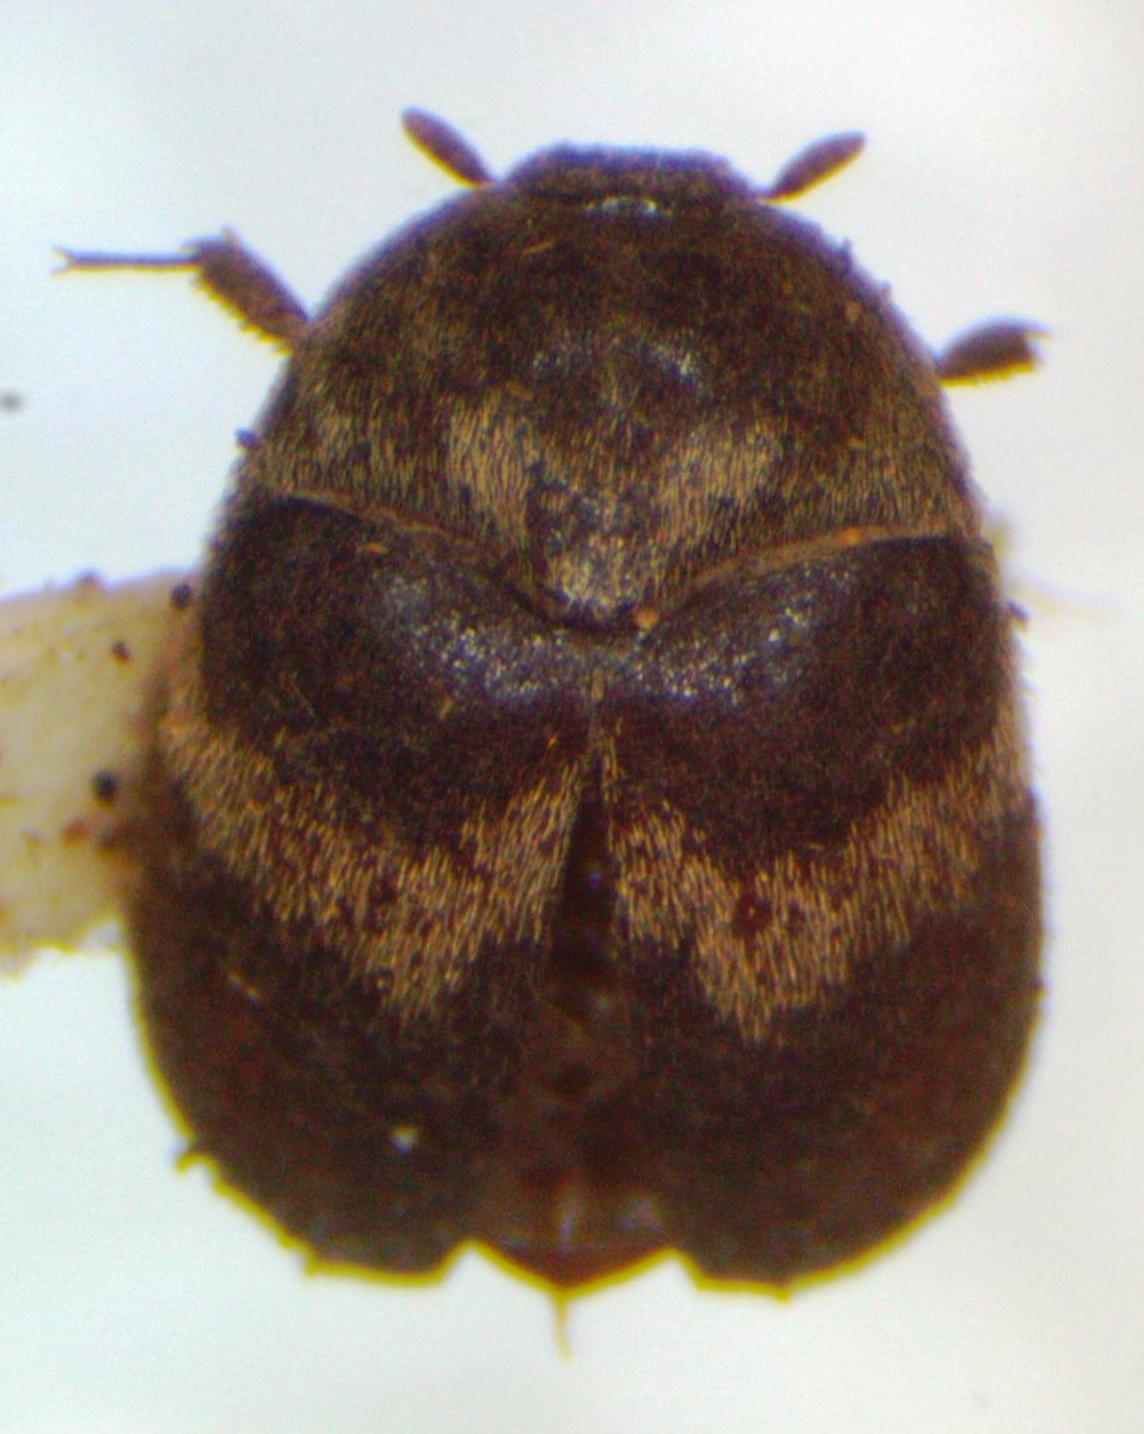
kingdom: Animalia
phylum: Arthropoda
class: Insecta
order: Coleoptera
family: Dermestidae
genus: Attagenus
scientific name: Attagenus fasciatus
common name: Wardrobe beetle
